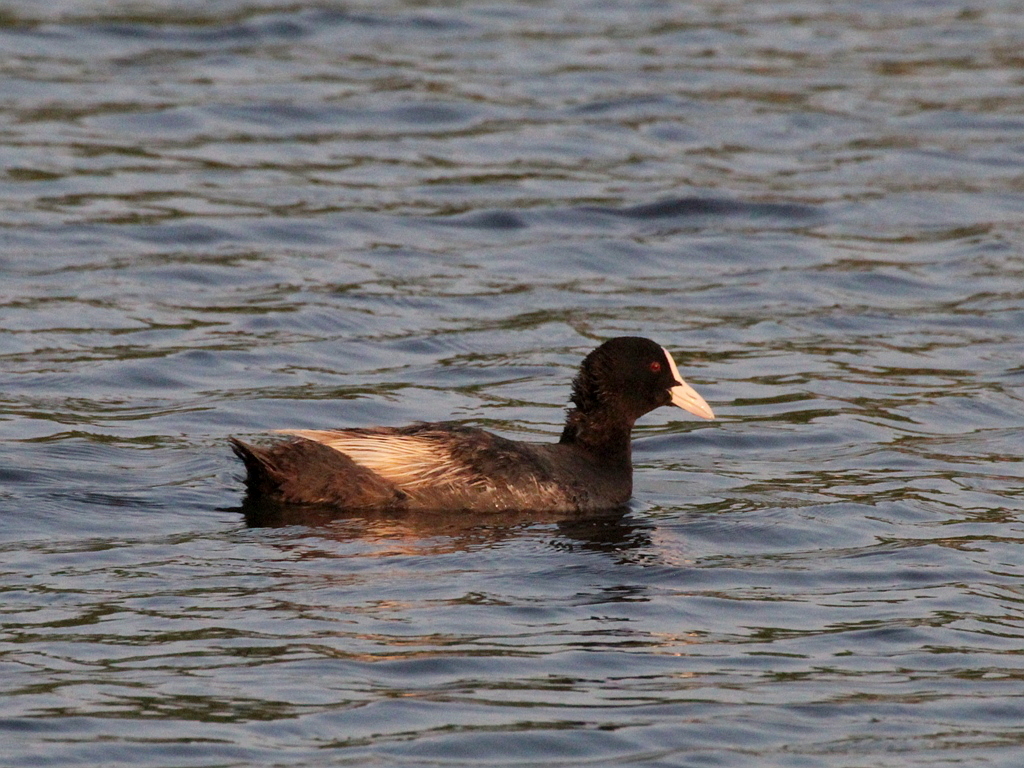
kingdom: Animalia
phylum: Chordata
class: Aves
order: Gruiformes
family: Rallidae
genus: Fulica
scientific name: Fulica atra
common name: Eurasian coot
